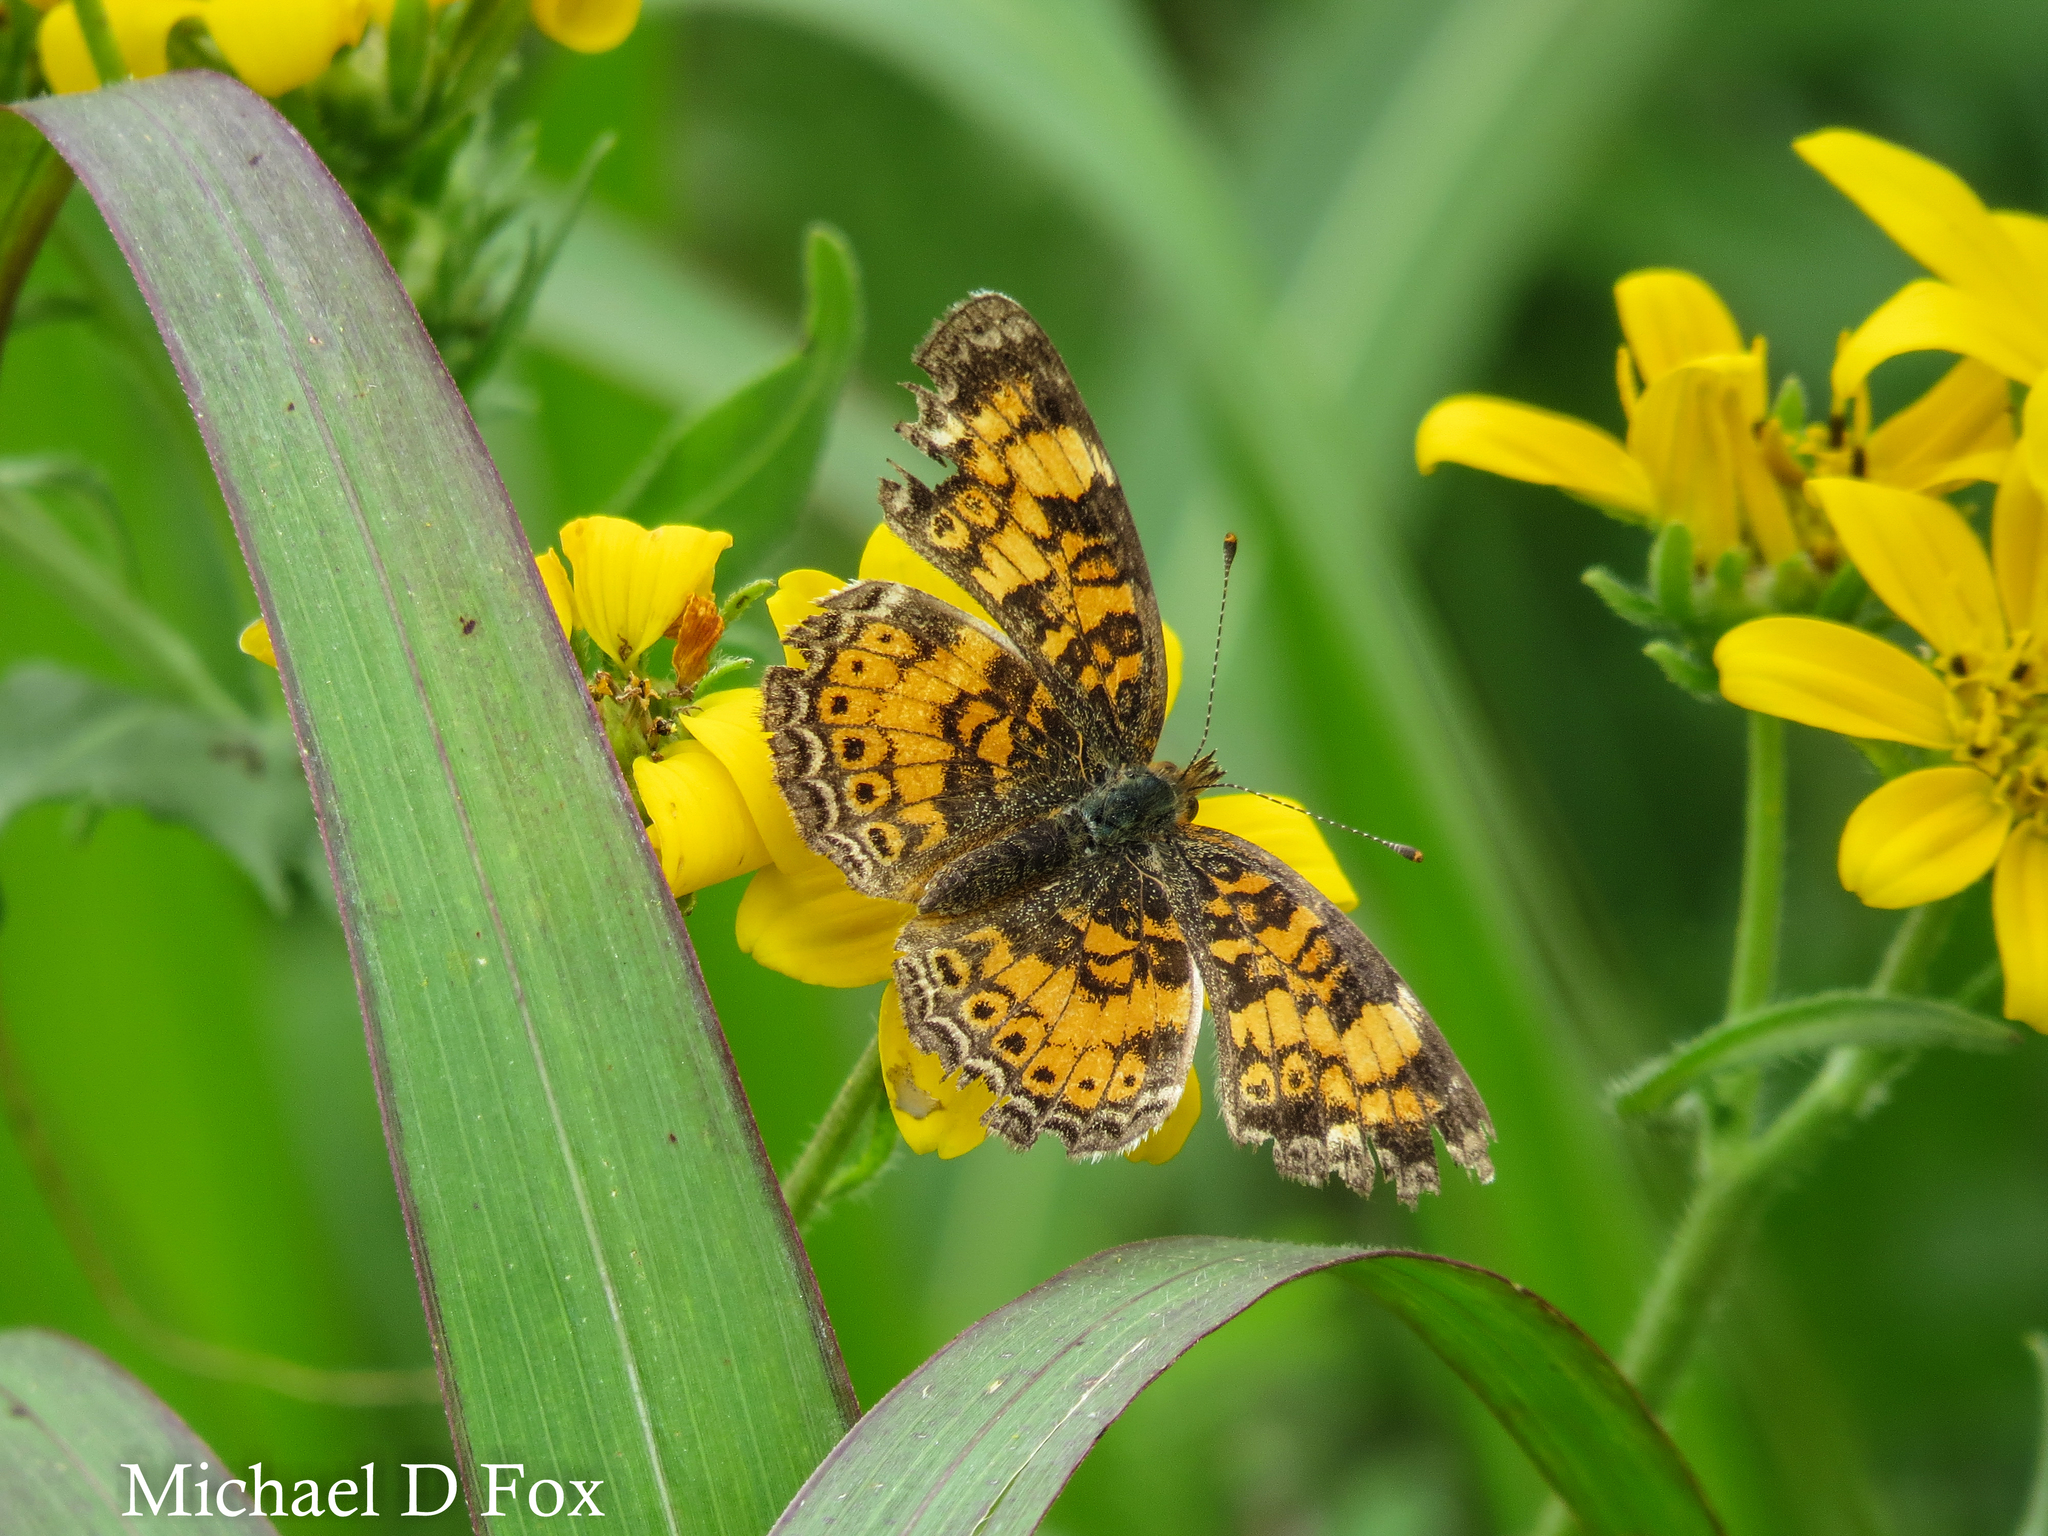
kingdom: Animalia
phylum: Arthropoda
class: Insecta
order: Lepidoptera
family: Nymphalidae
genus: Phyciodes
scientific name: Phyciodes tharos
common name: Pearl crescent
